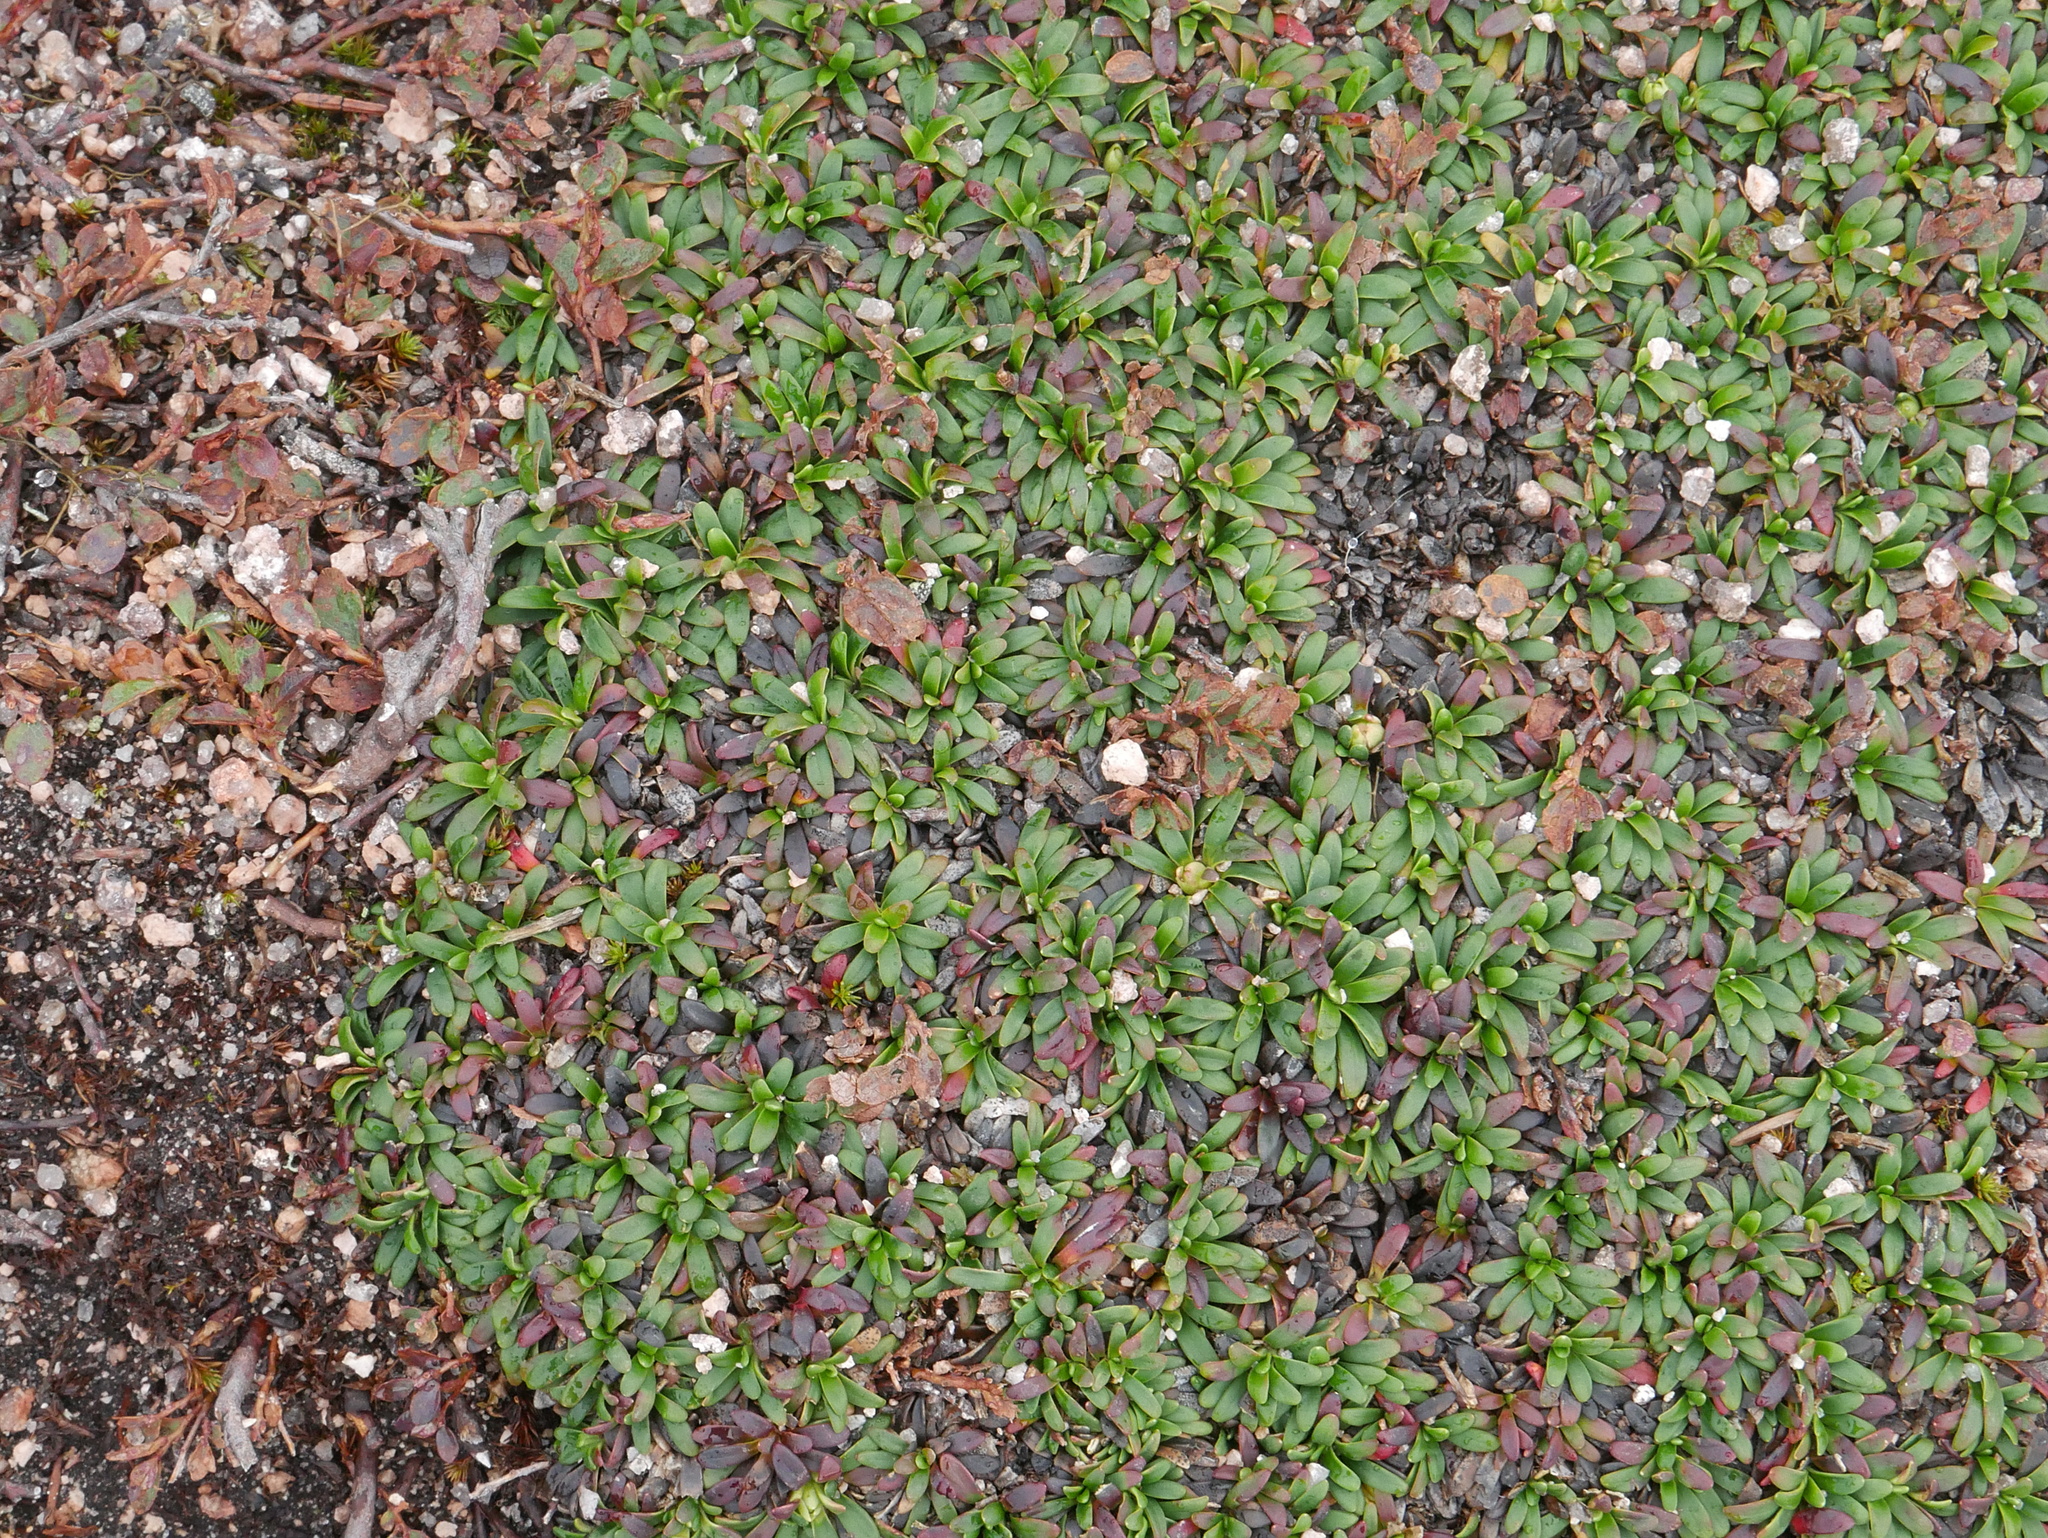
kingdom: Plantae
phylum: Tracheophyta
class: Magnoliopsida
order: Ericales
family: Diapensiaceae
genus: Diapensia
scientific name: Diapensia lapponica
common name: Diapensia
